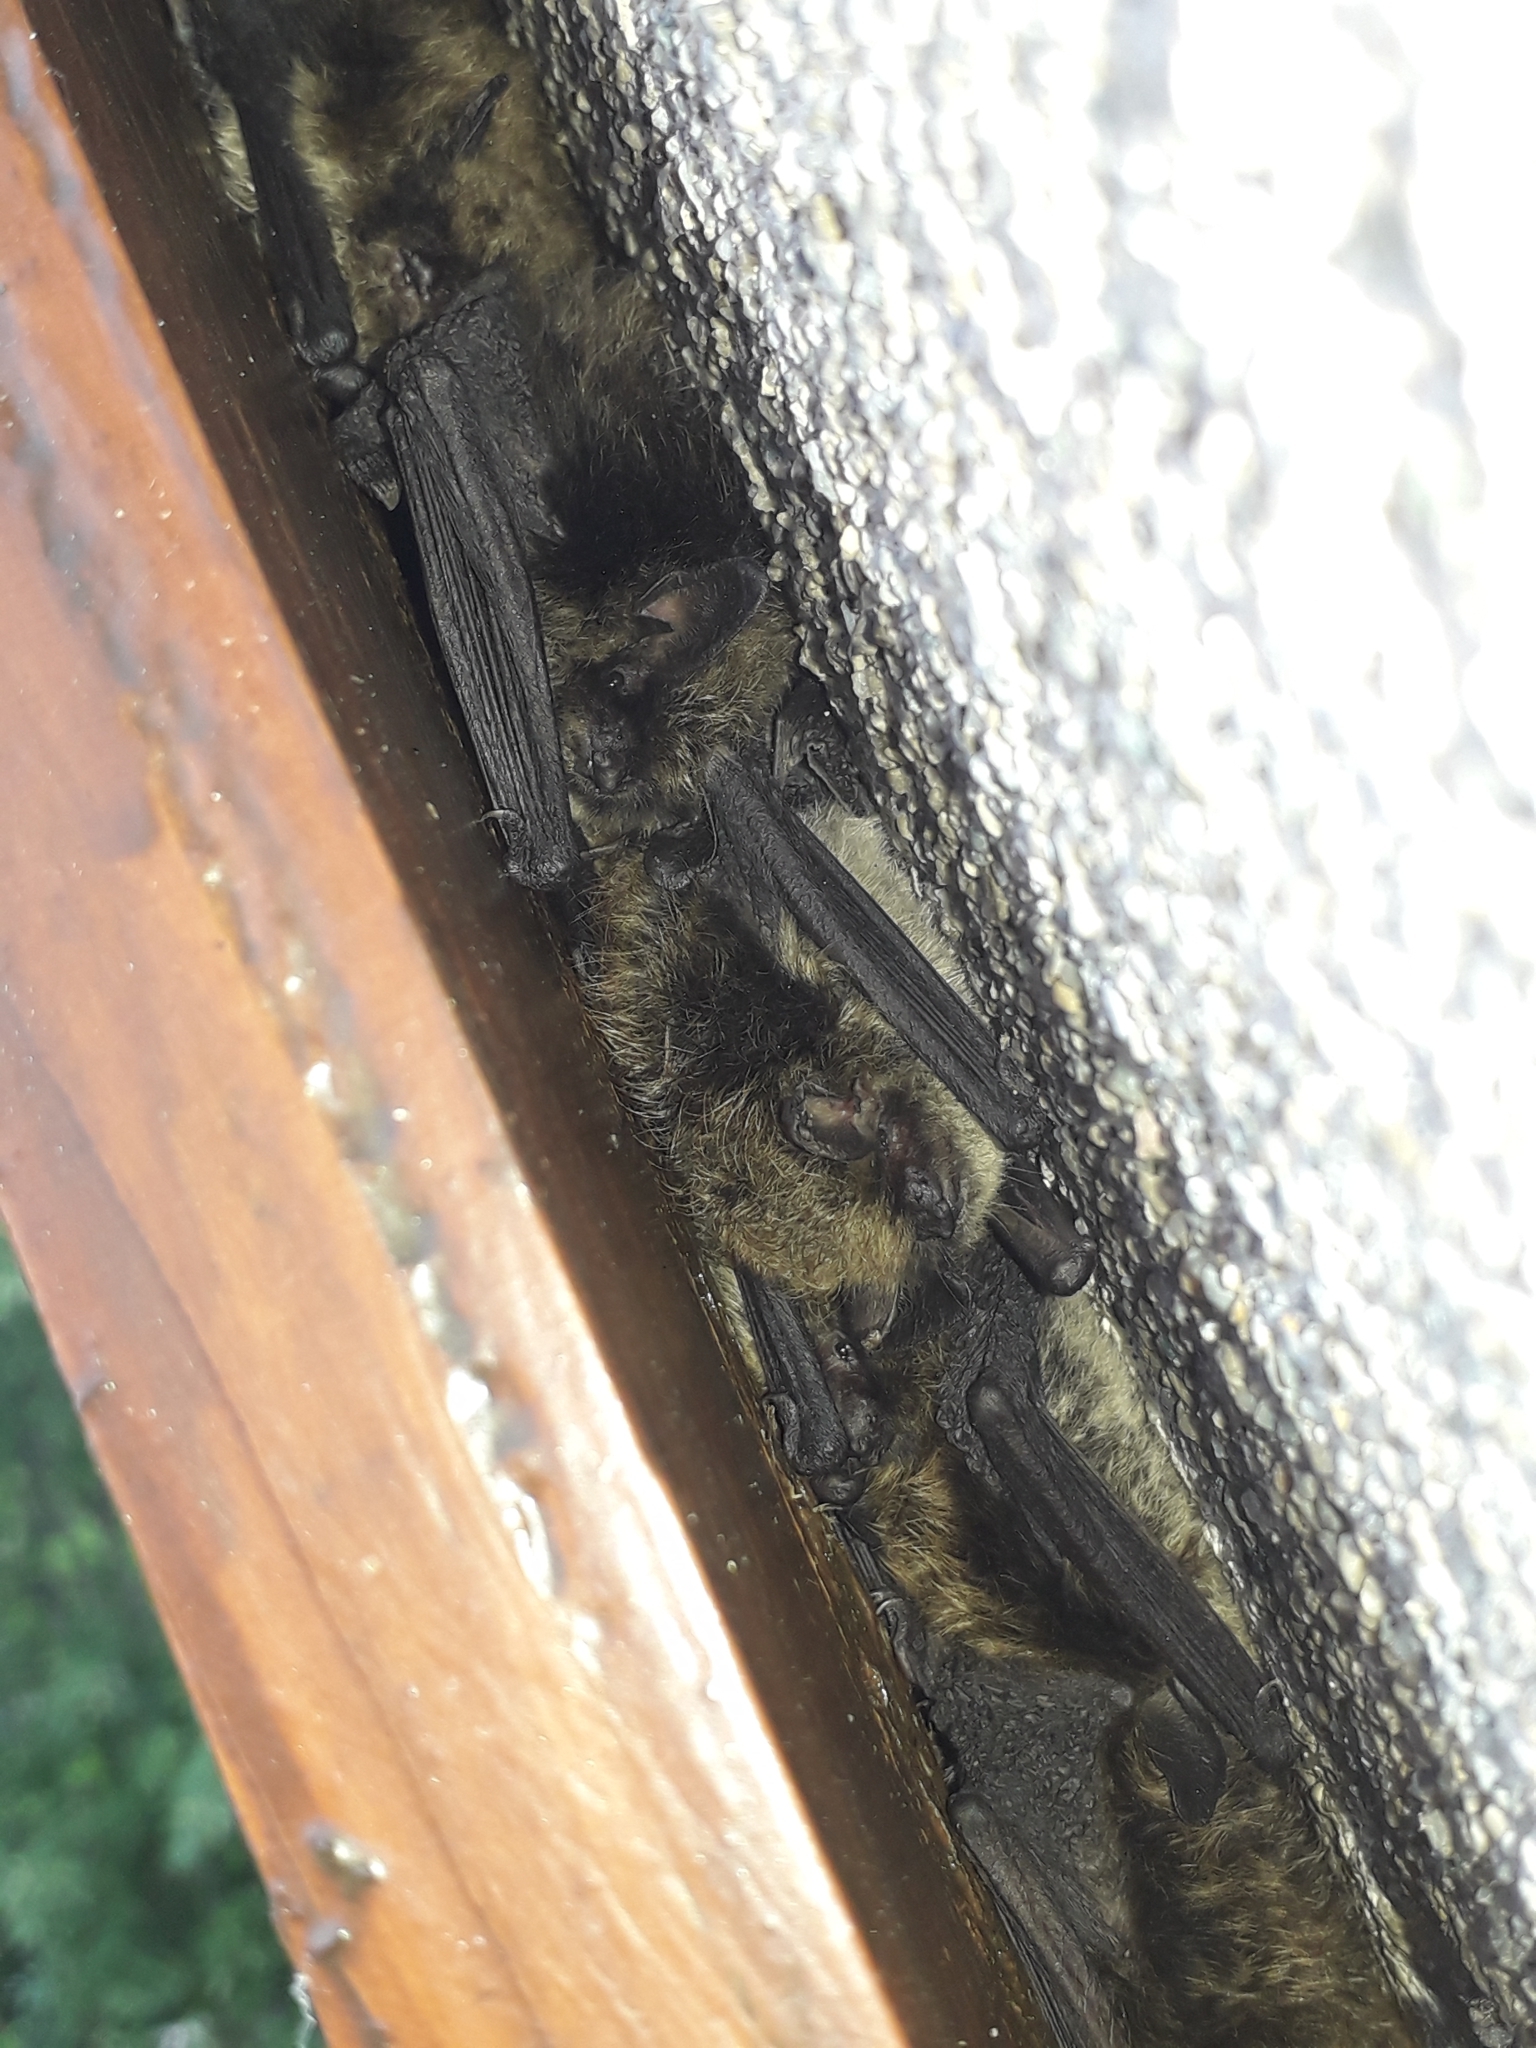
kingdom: Animalia
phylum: Chordata
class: Mammalia
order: Chiroptera
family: Vespertilionidae
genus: Myotis
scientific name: Myotis mystacinus
